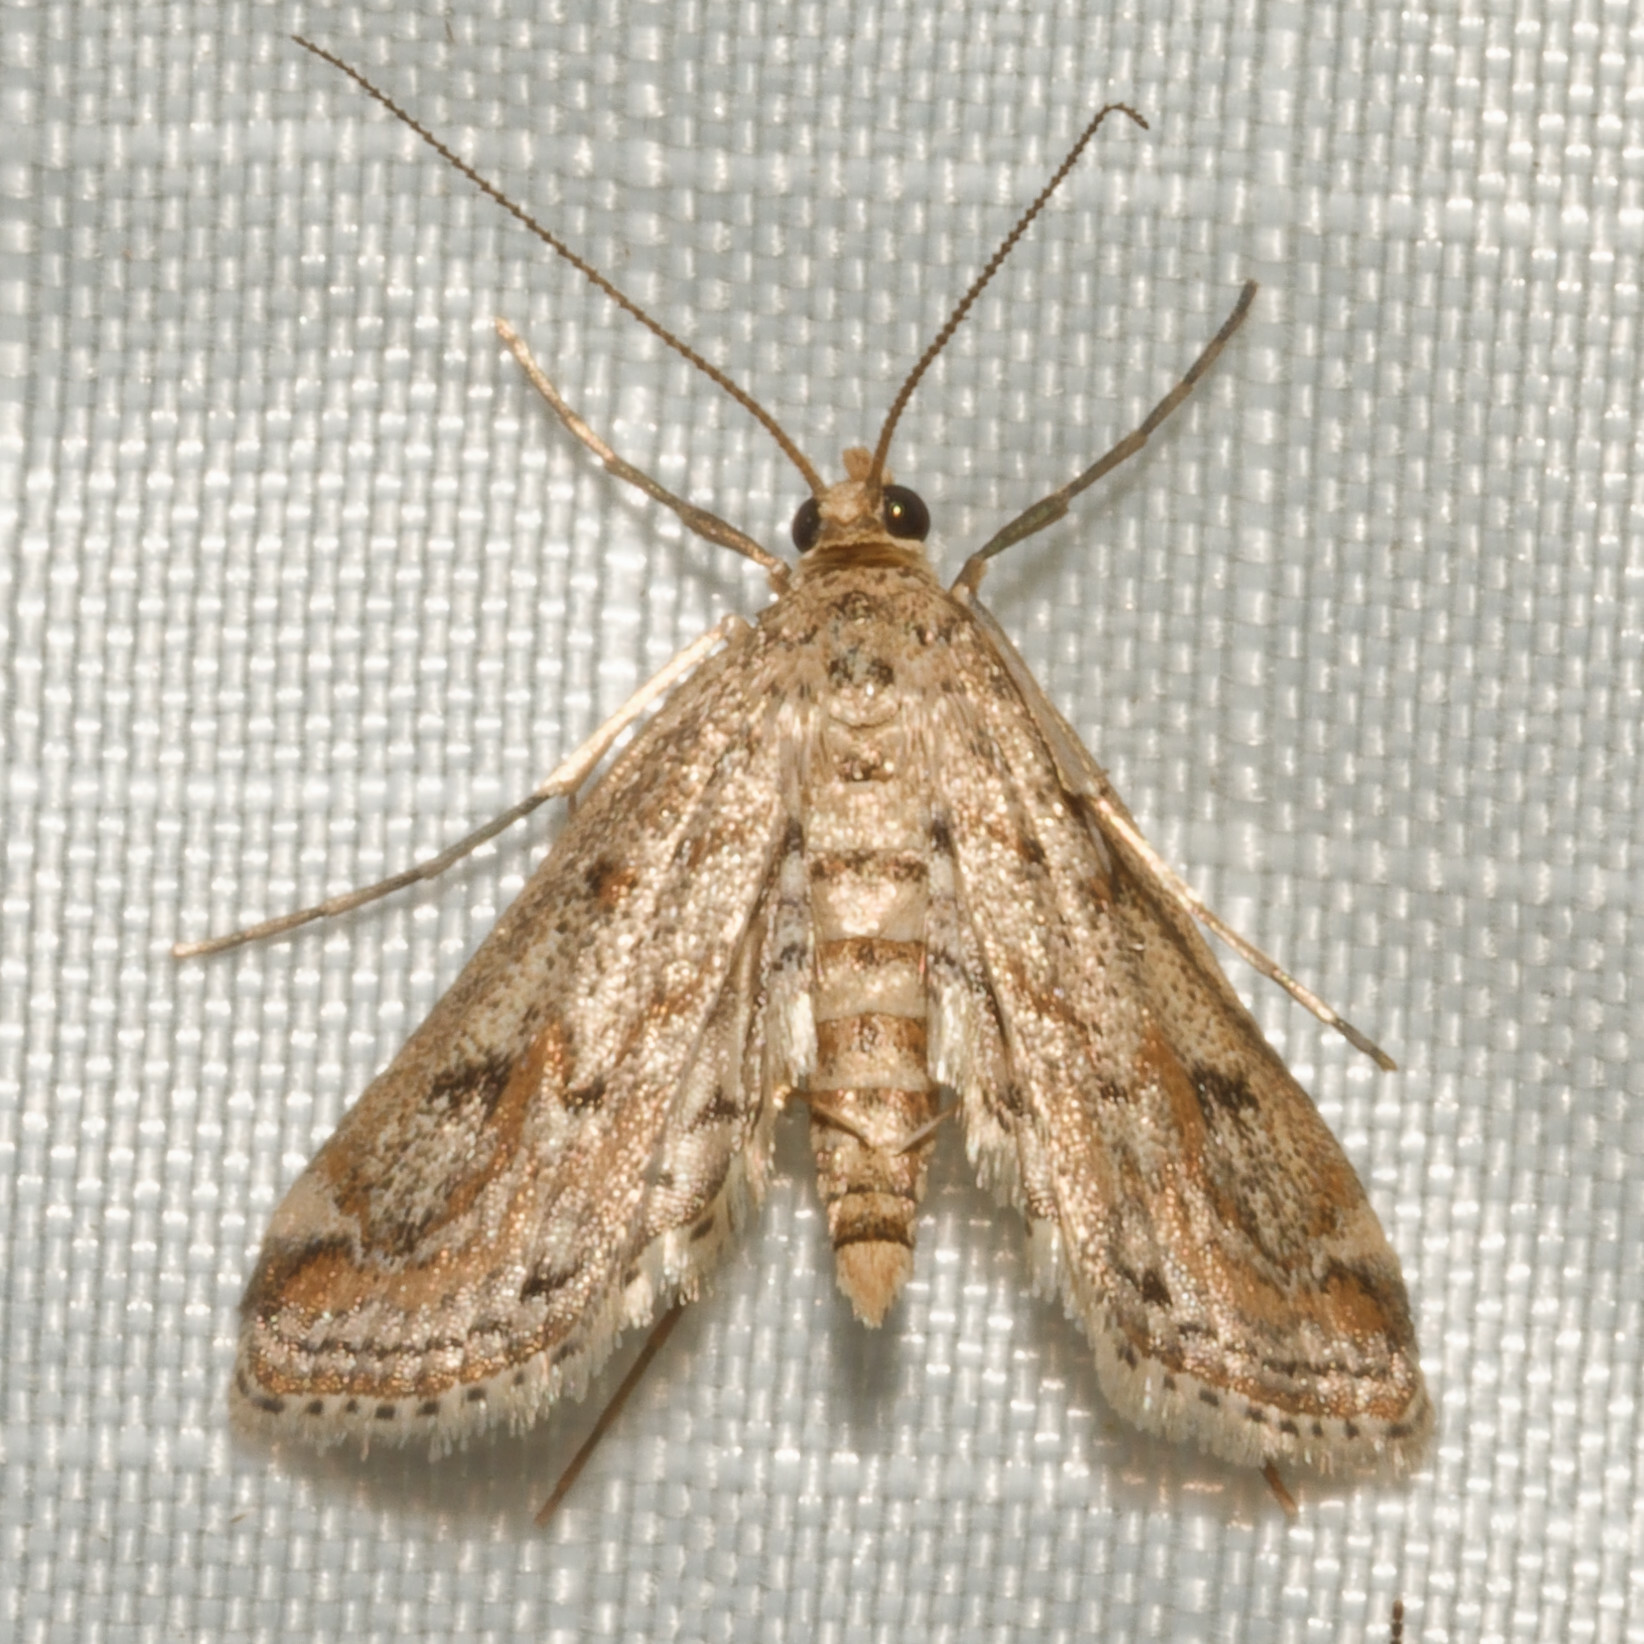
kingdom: Animalia
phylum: Arthropoda
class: Insecta
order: Lepidoptera
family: Crambidae
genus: Parapoynx
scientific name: Parapoynx allionealis
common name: Bladderwort casemaker
